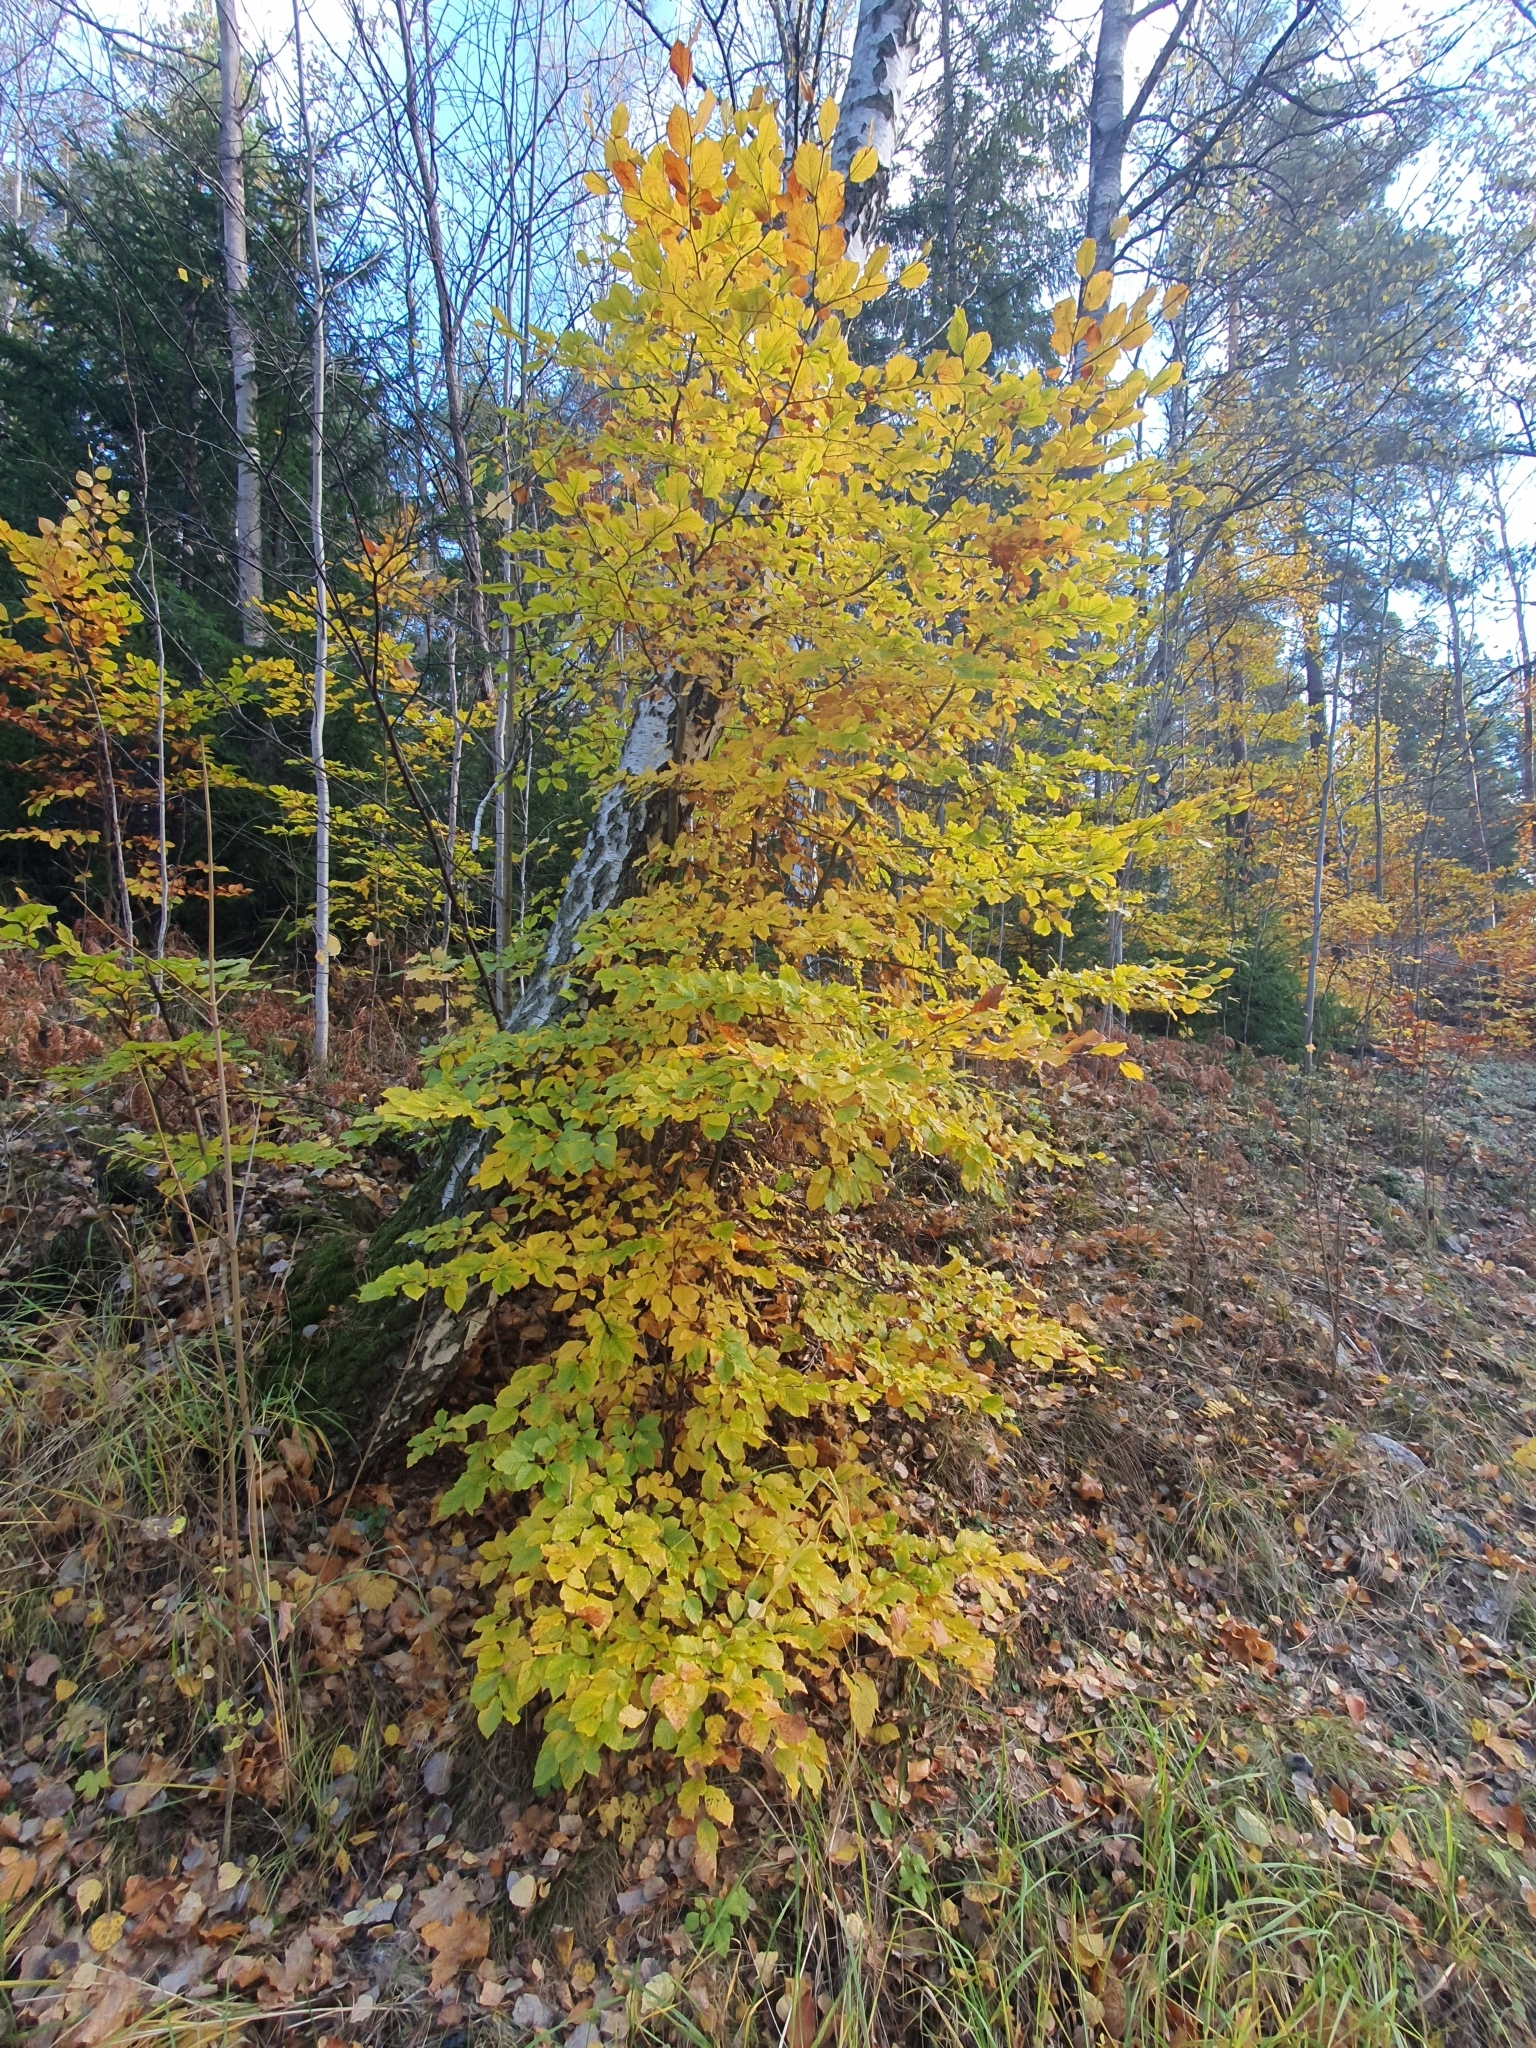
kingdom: Plantae
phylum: Tracheophyta
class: Magnoliopsida
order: Fagales
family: Fagaceae
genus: Fagus
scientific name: Fagus sylvatica
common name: Beech
